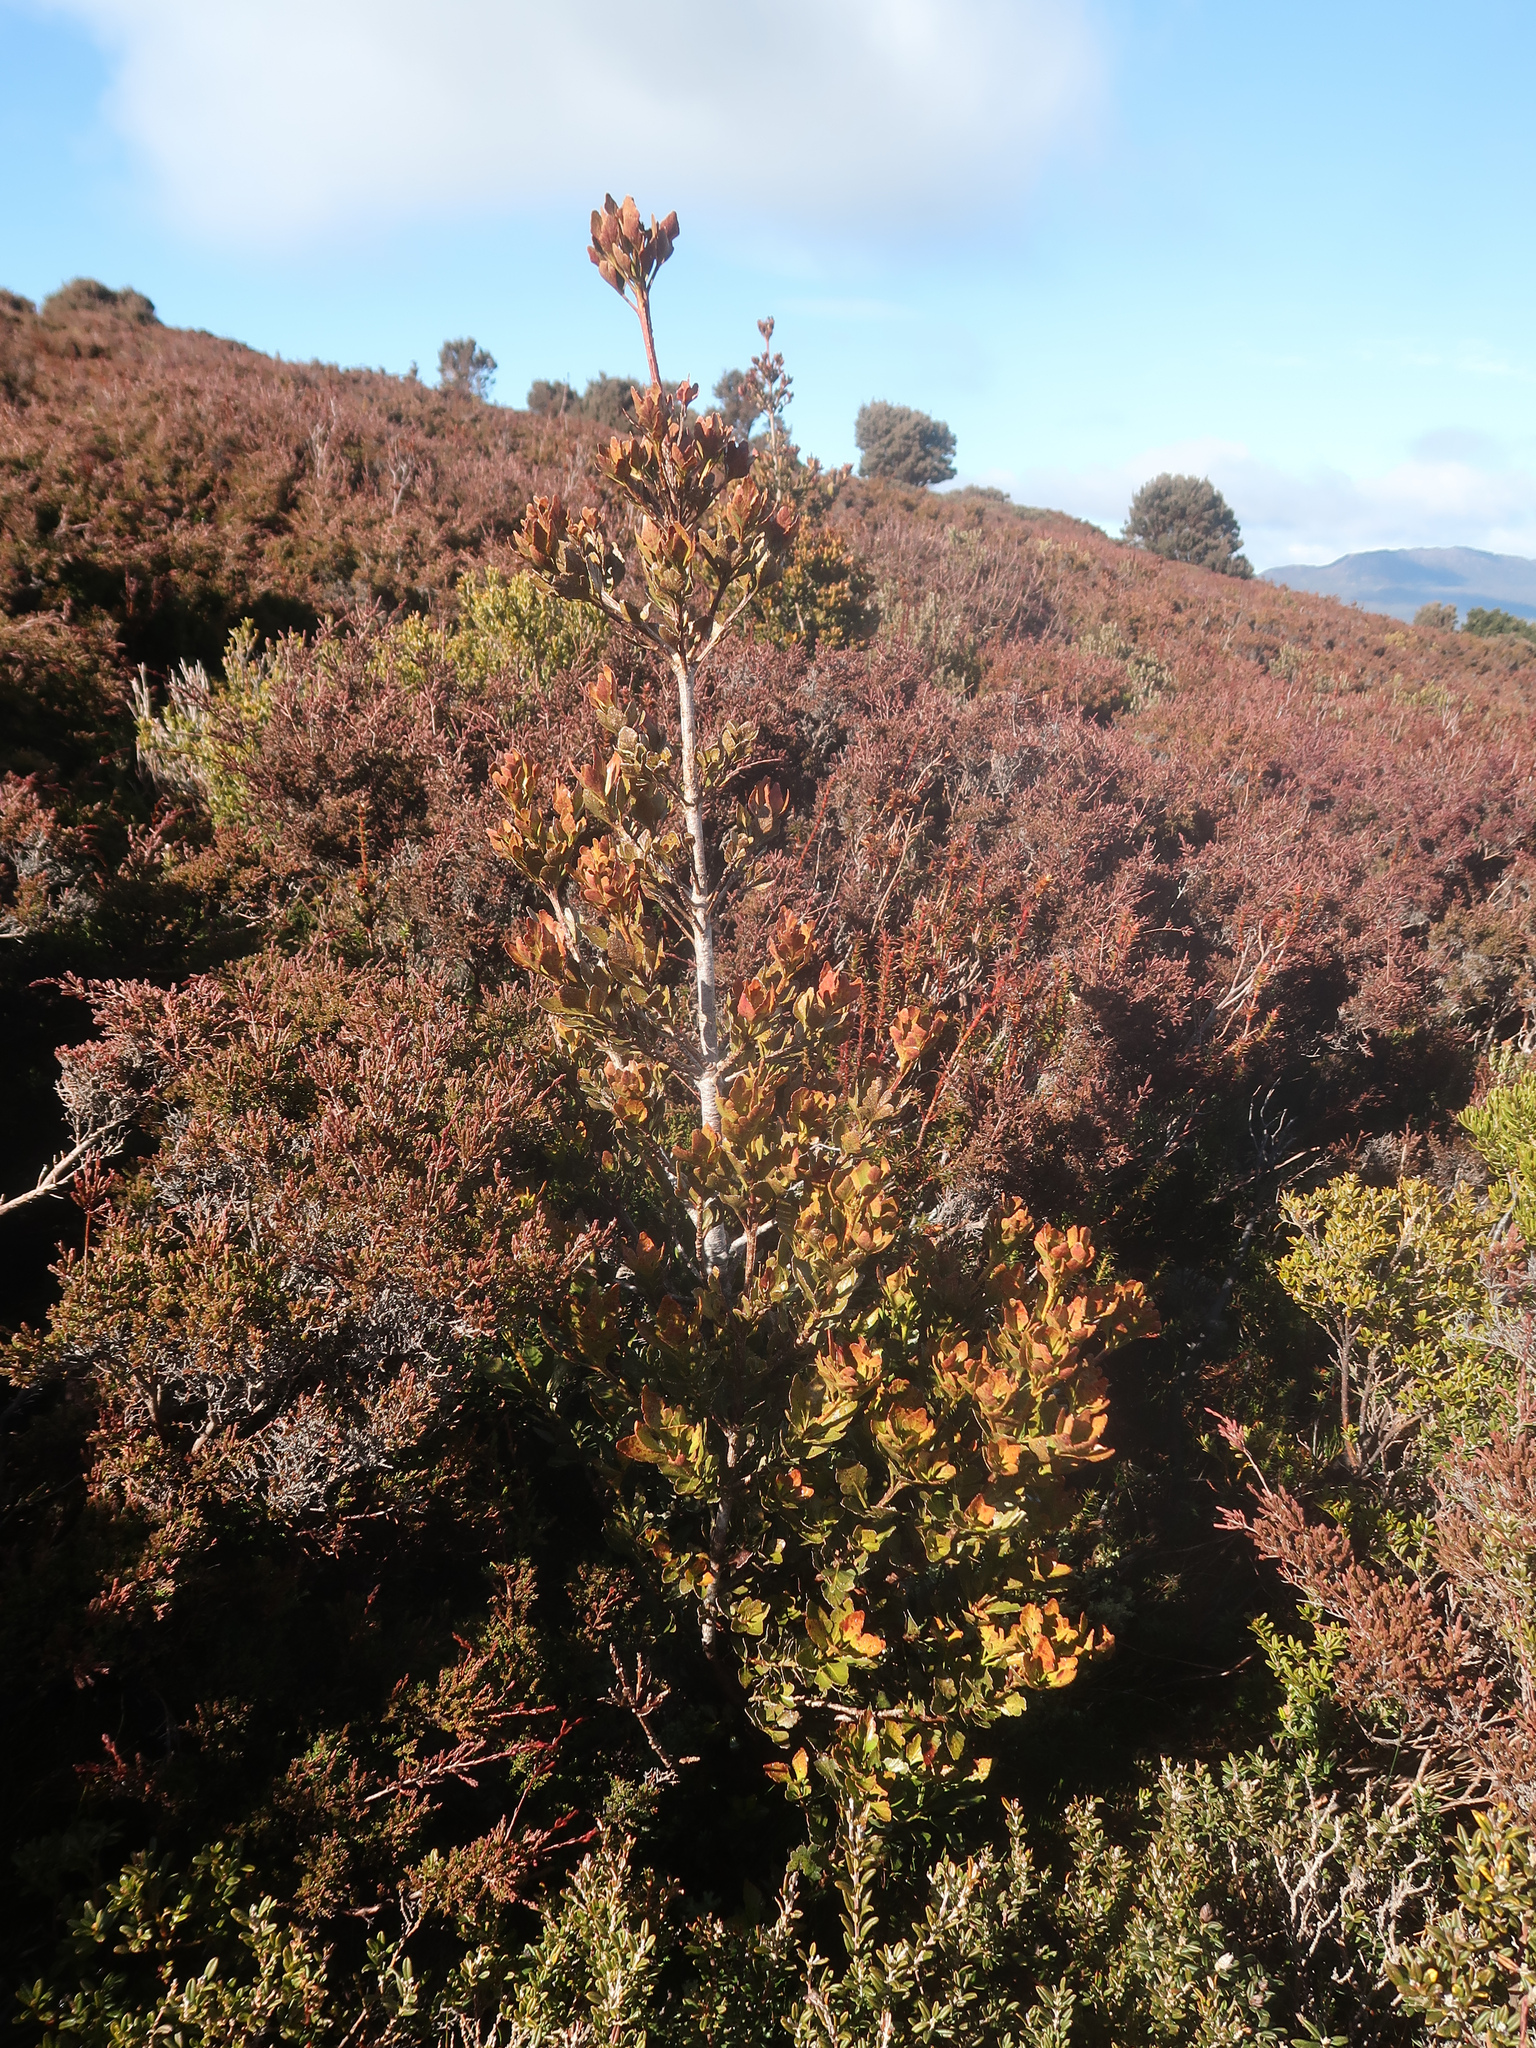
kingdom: Plantae
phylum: Tracheophyta
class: Pinopsida
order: Pinales
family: Phyllocladaceae
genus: Phyllocladus
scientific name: Phyllocladus aspleniifolius
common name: Celery-top pine
